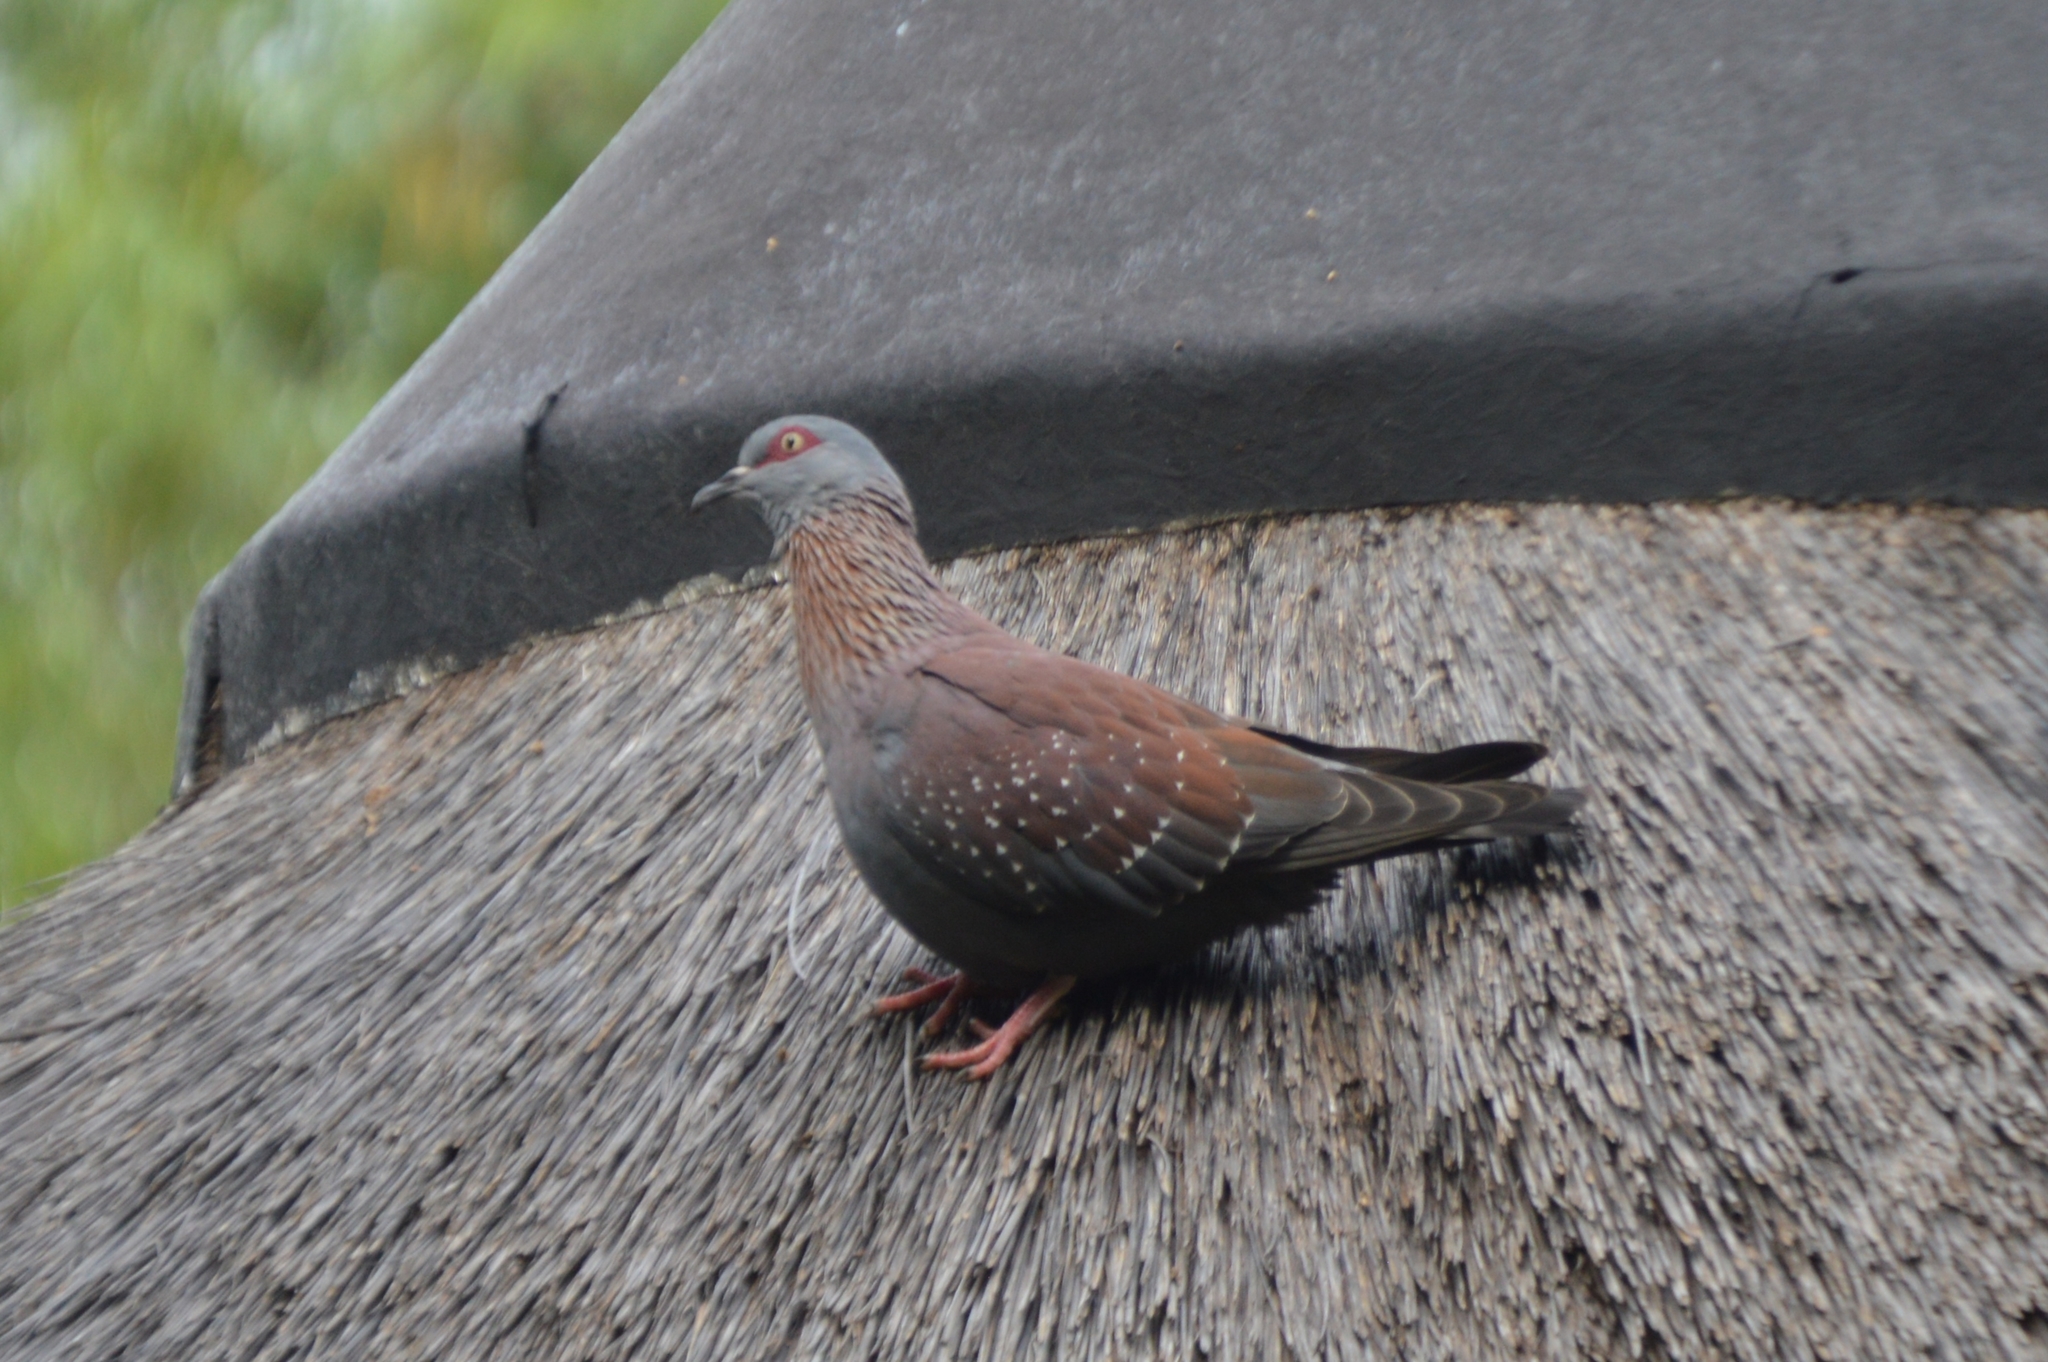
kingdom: Animalia
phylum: Chordata
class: Aves
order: Columbiformes
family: Columbidae
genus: Columba
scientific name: Columba guinea
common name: Speckled pigeon
